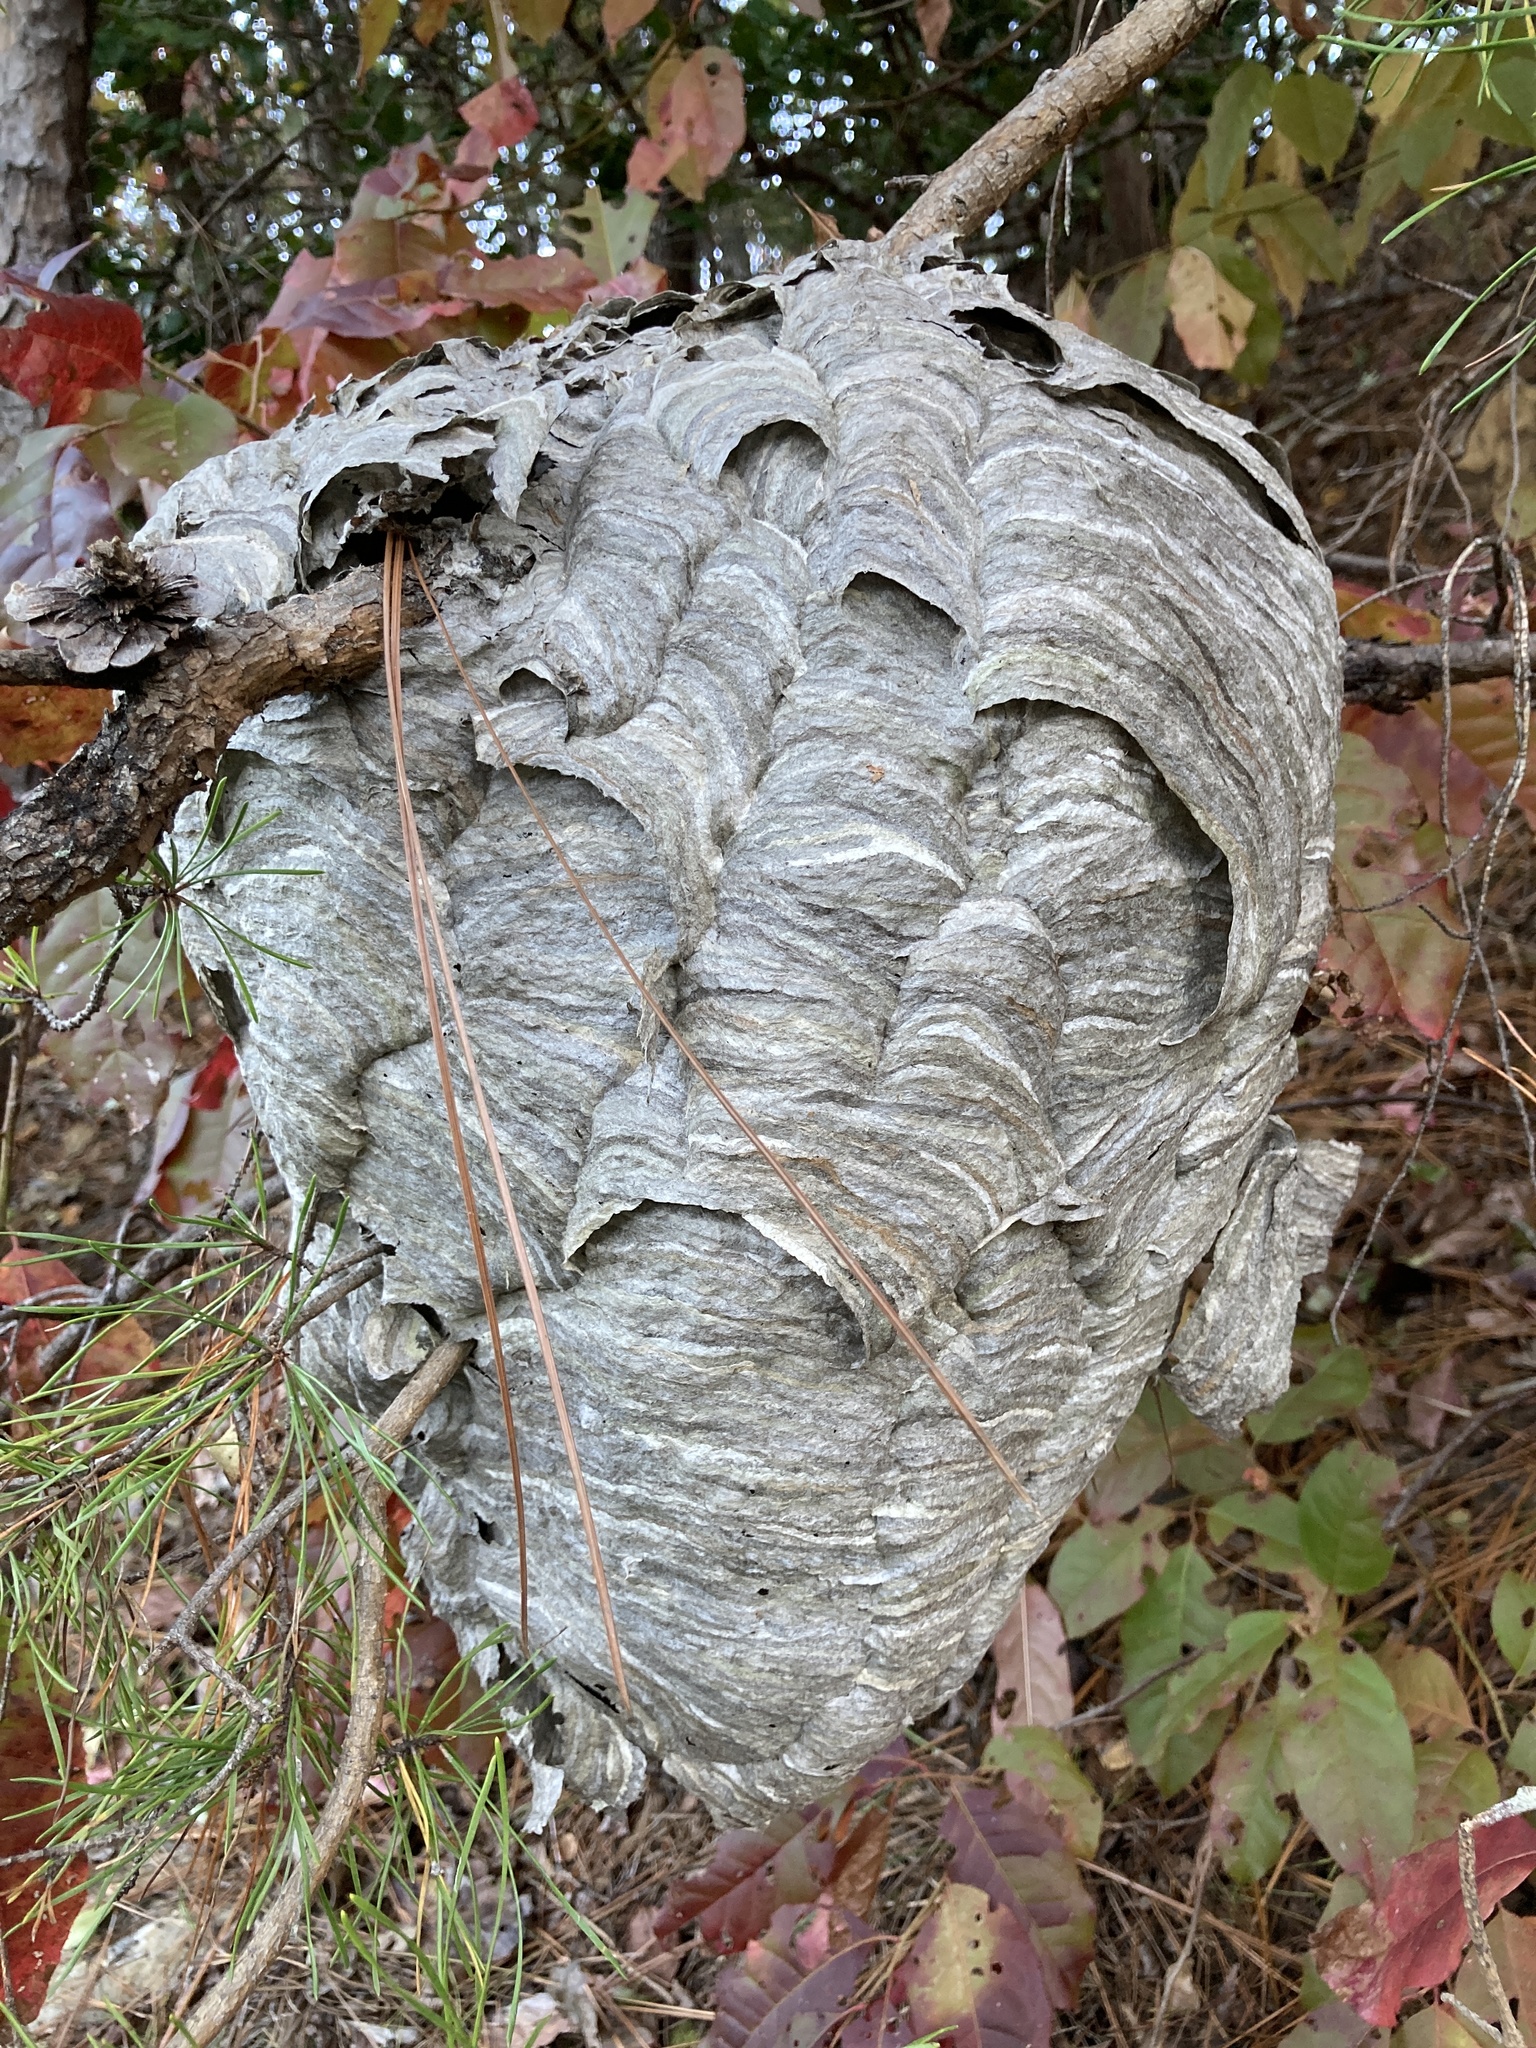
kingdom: Animalia
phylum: Arthropoda
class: Insecta
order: Hymenoptera
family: Vespidae
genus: Dolichovespula
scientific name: Dolichovespula maculata
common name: Bald-faced hornet
